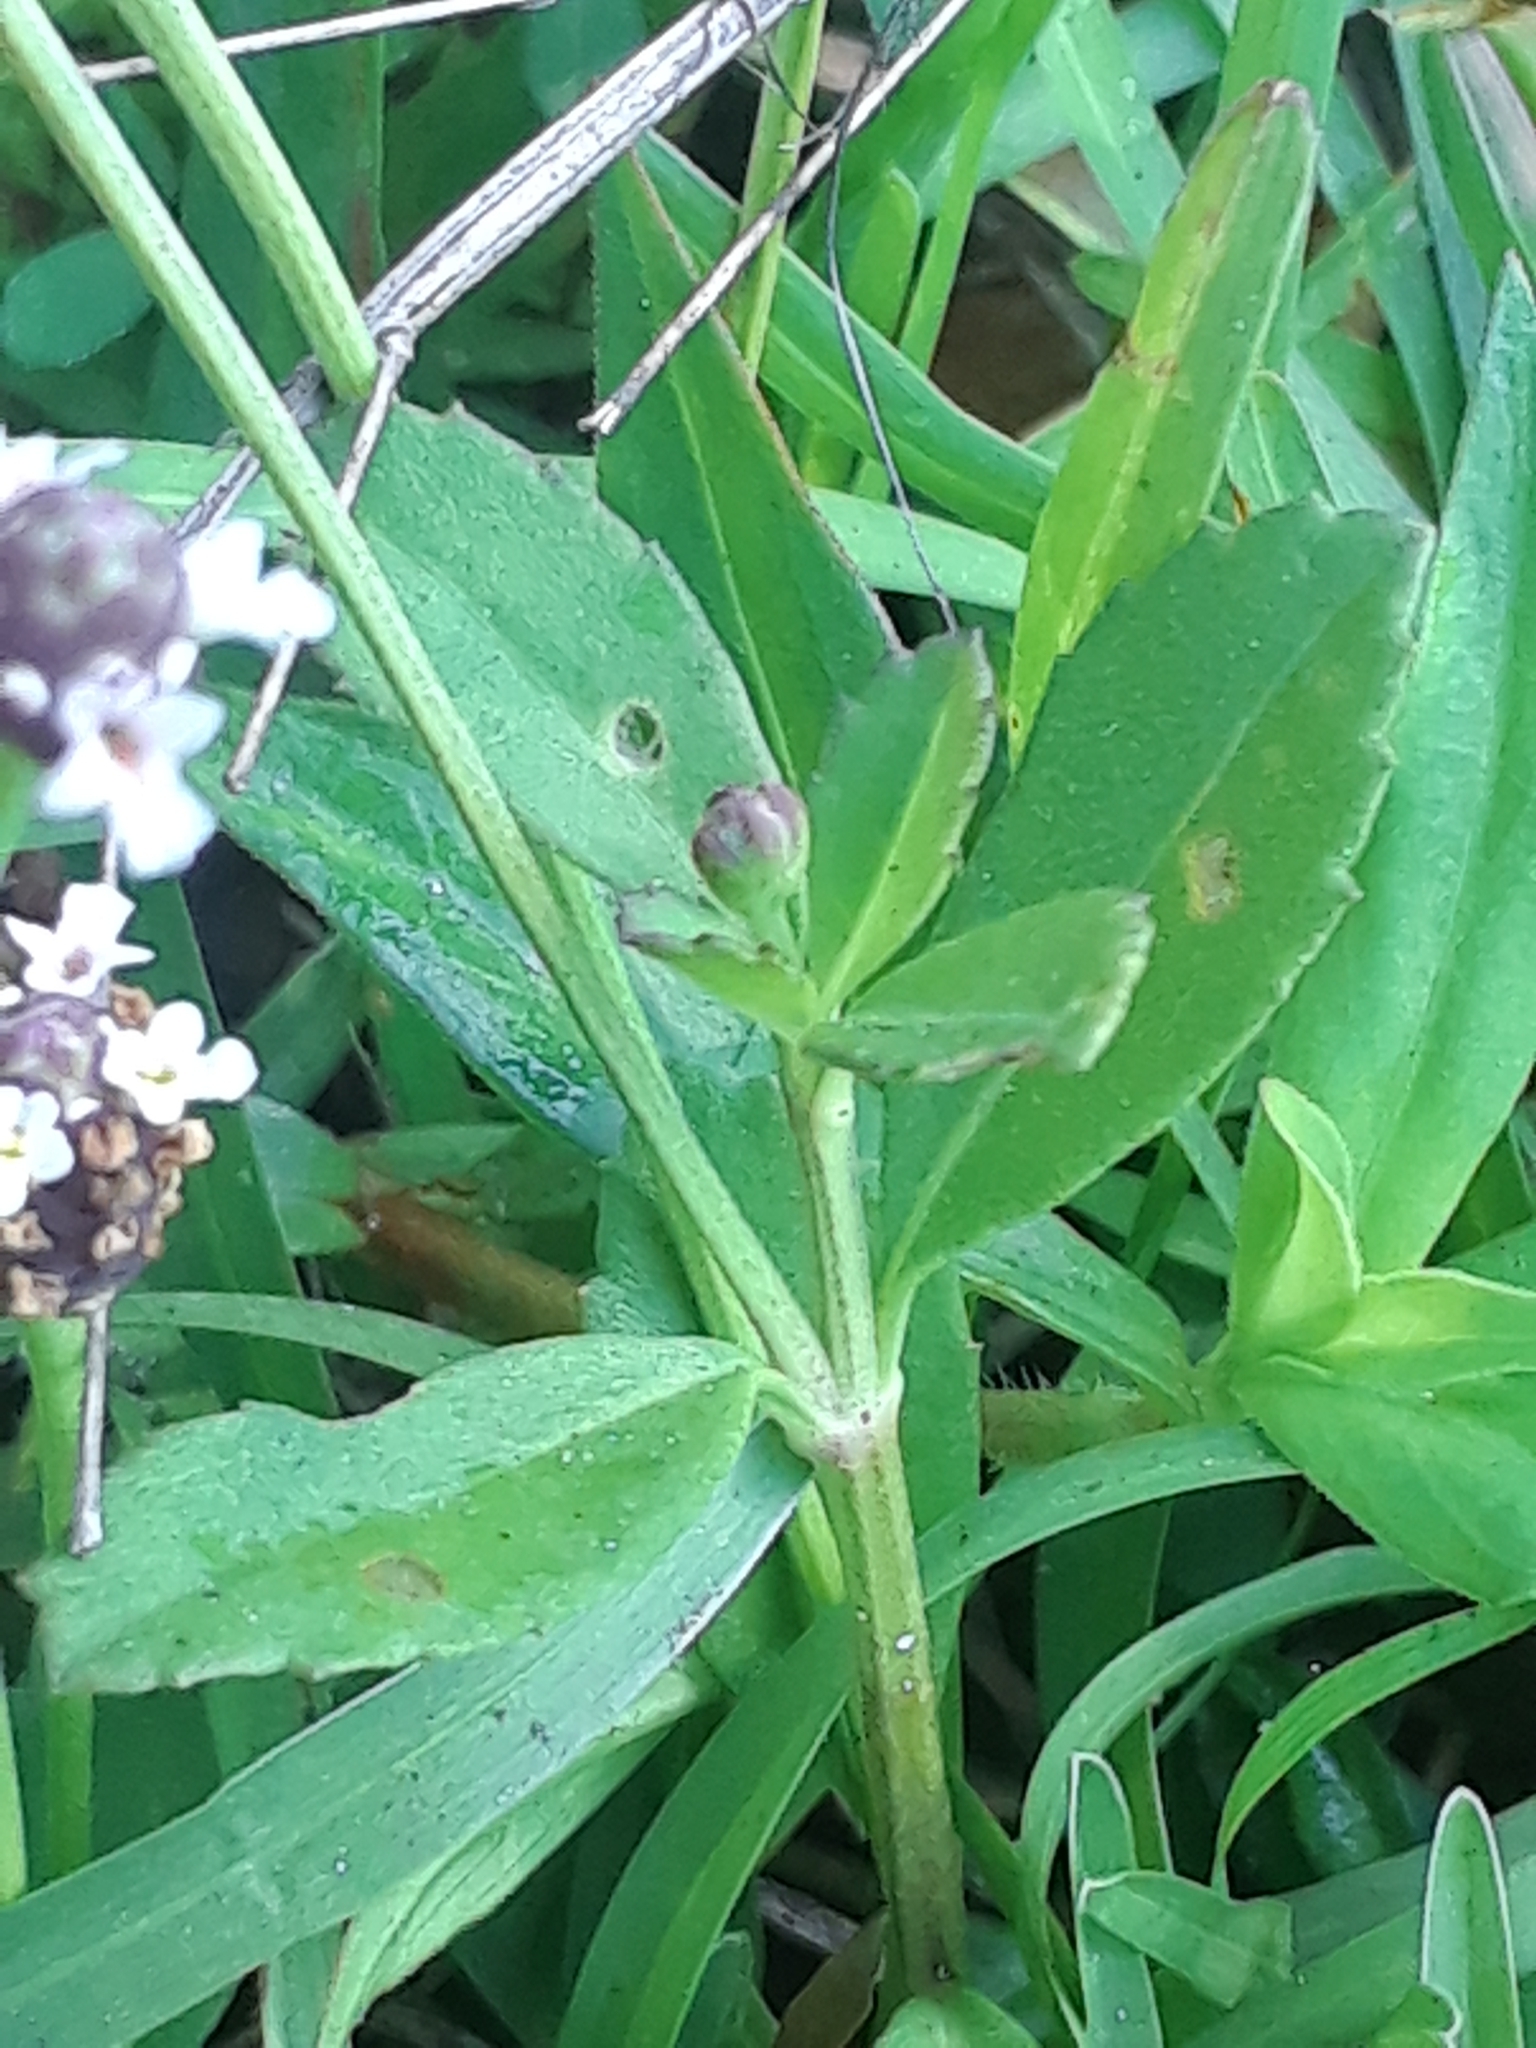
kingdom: Plantae
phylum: Tracheophyta
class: Magnoliopsida
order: Lamiales
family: Verbenaceae
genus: Phyla
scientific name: Phyla nodiflora
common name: Frogfruit
